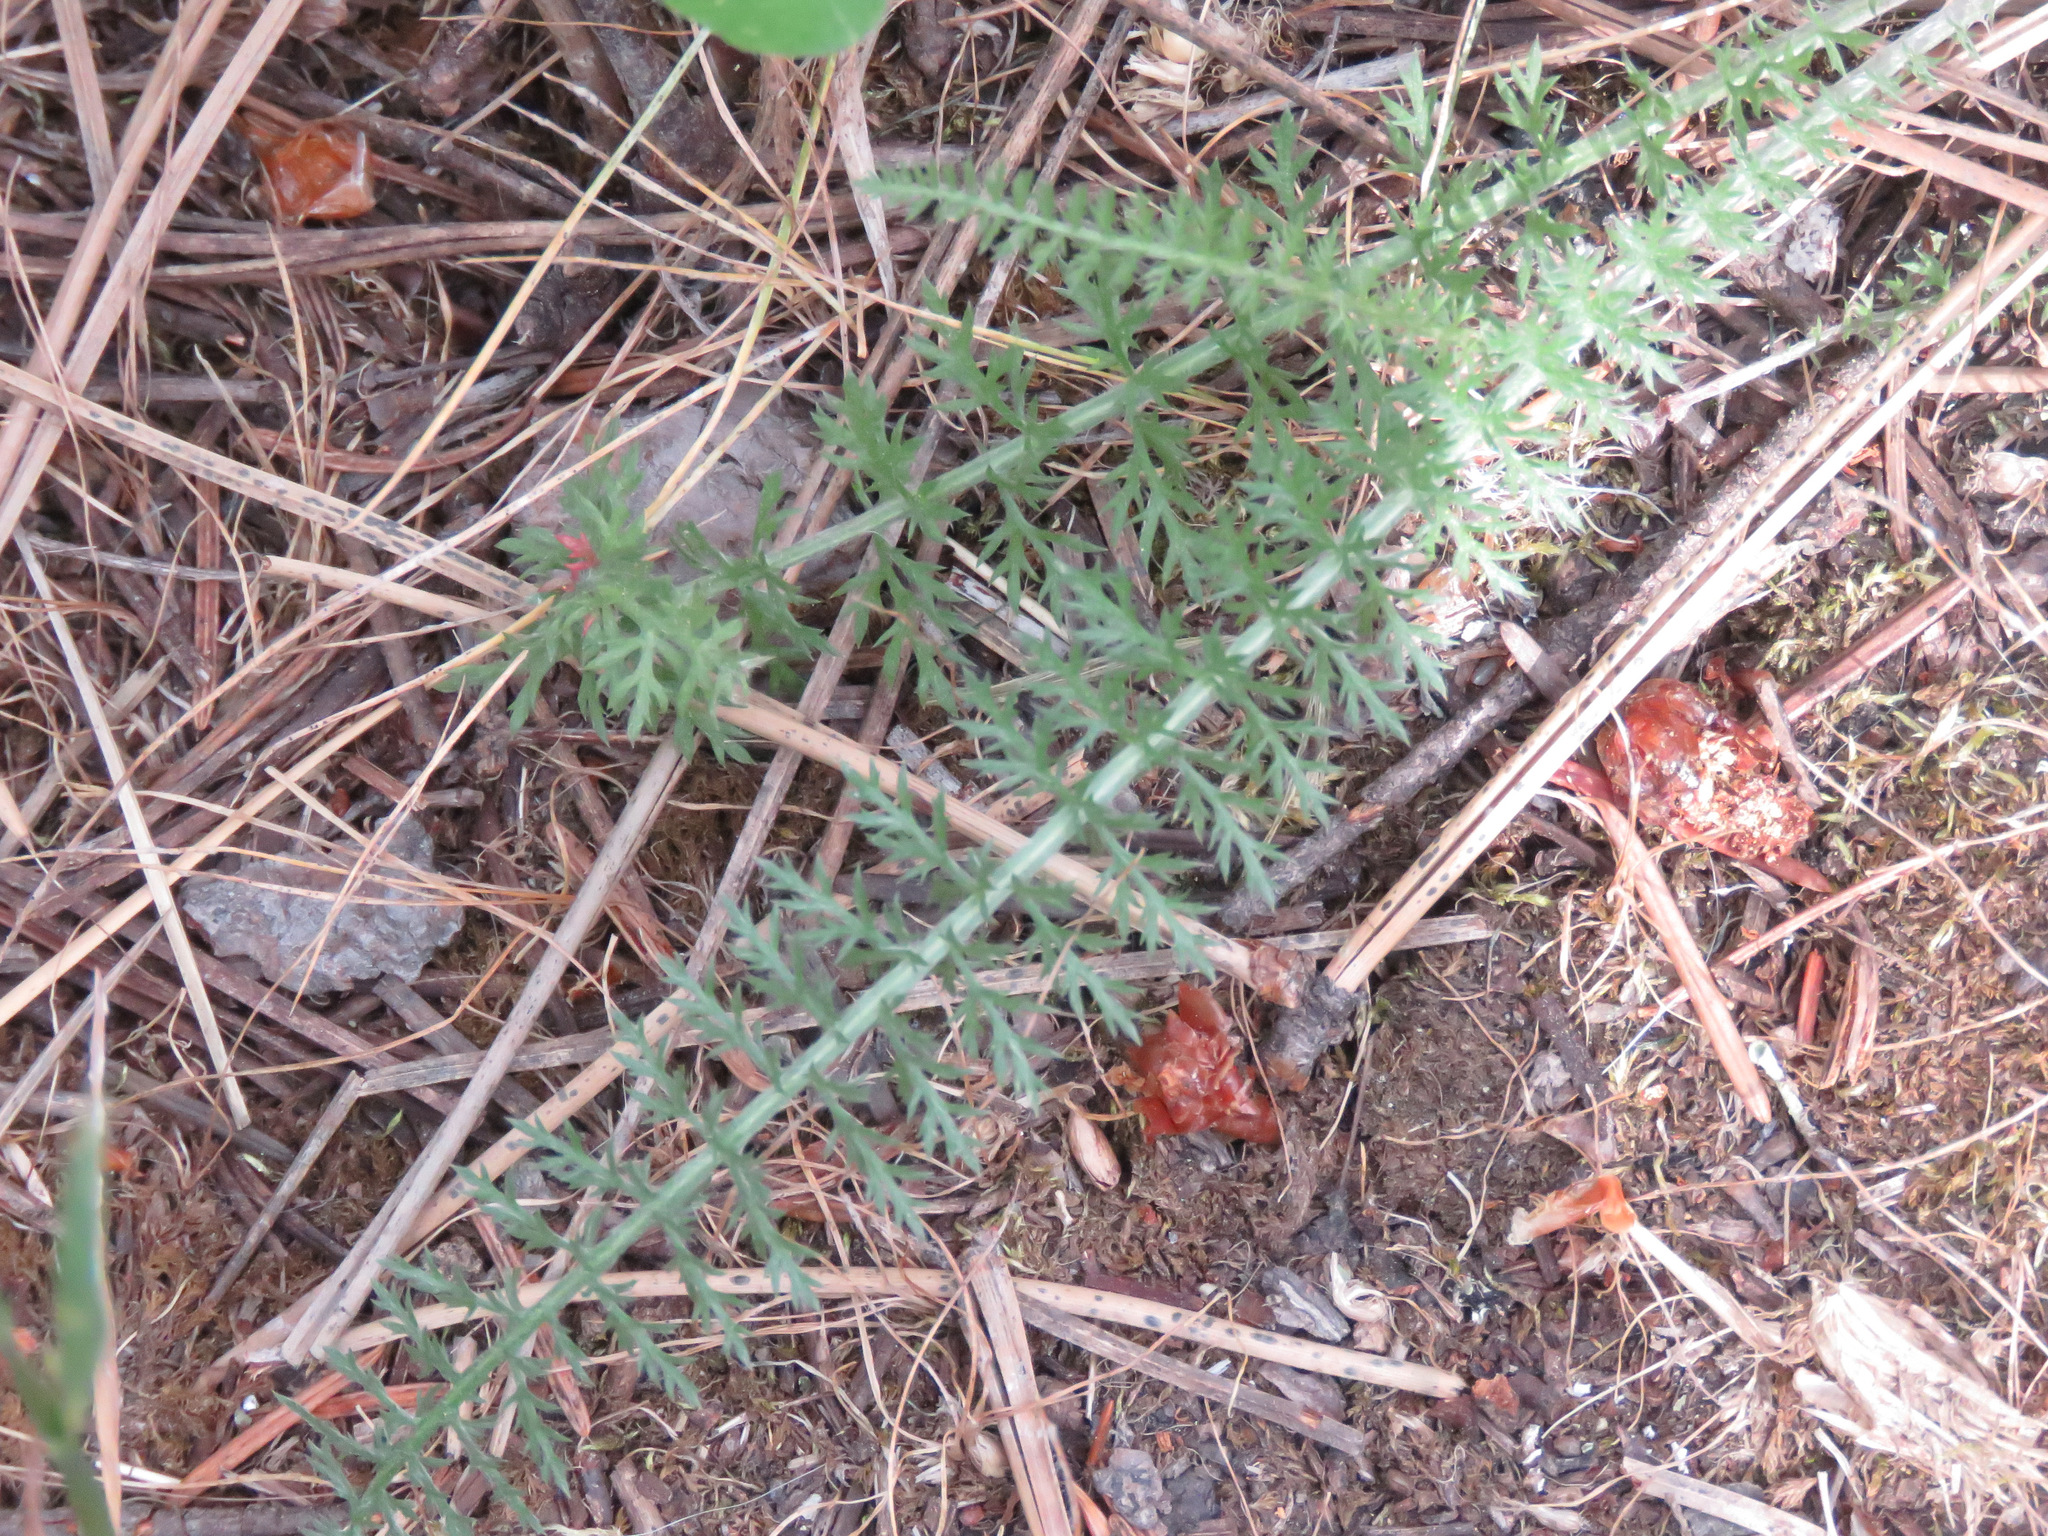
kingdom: Plantae
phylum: Tracheophyta
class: Magnoliopsida
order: Asterales
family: Asteraceae
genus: Achillea
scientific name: Achillea millefolium
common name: Yarrow
